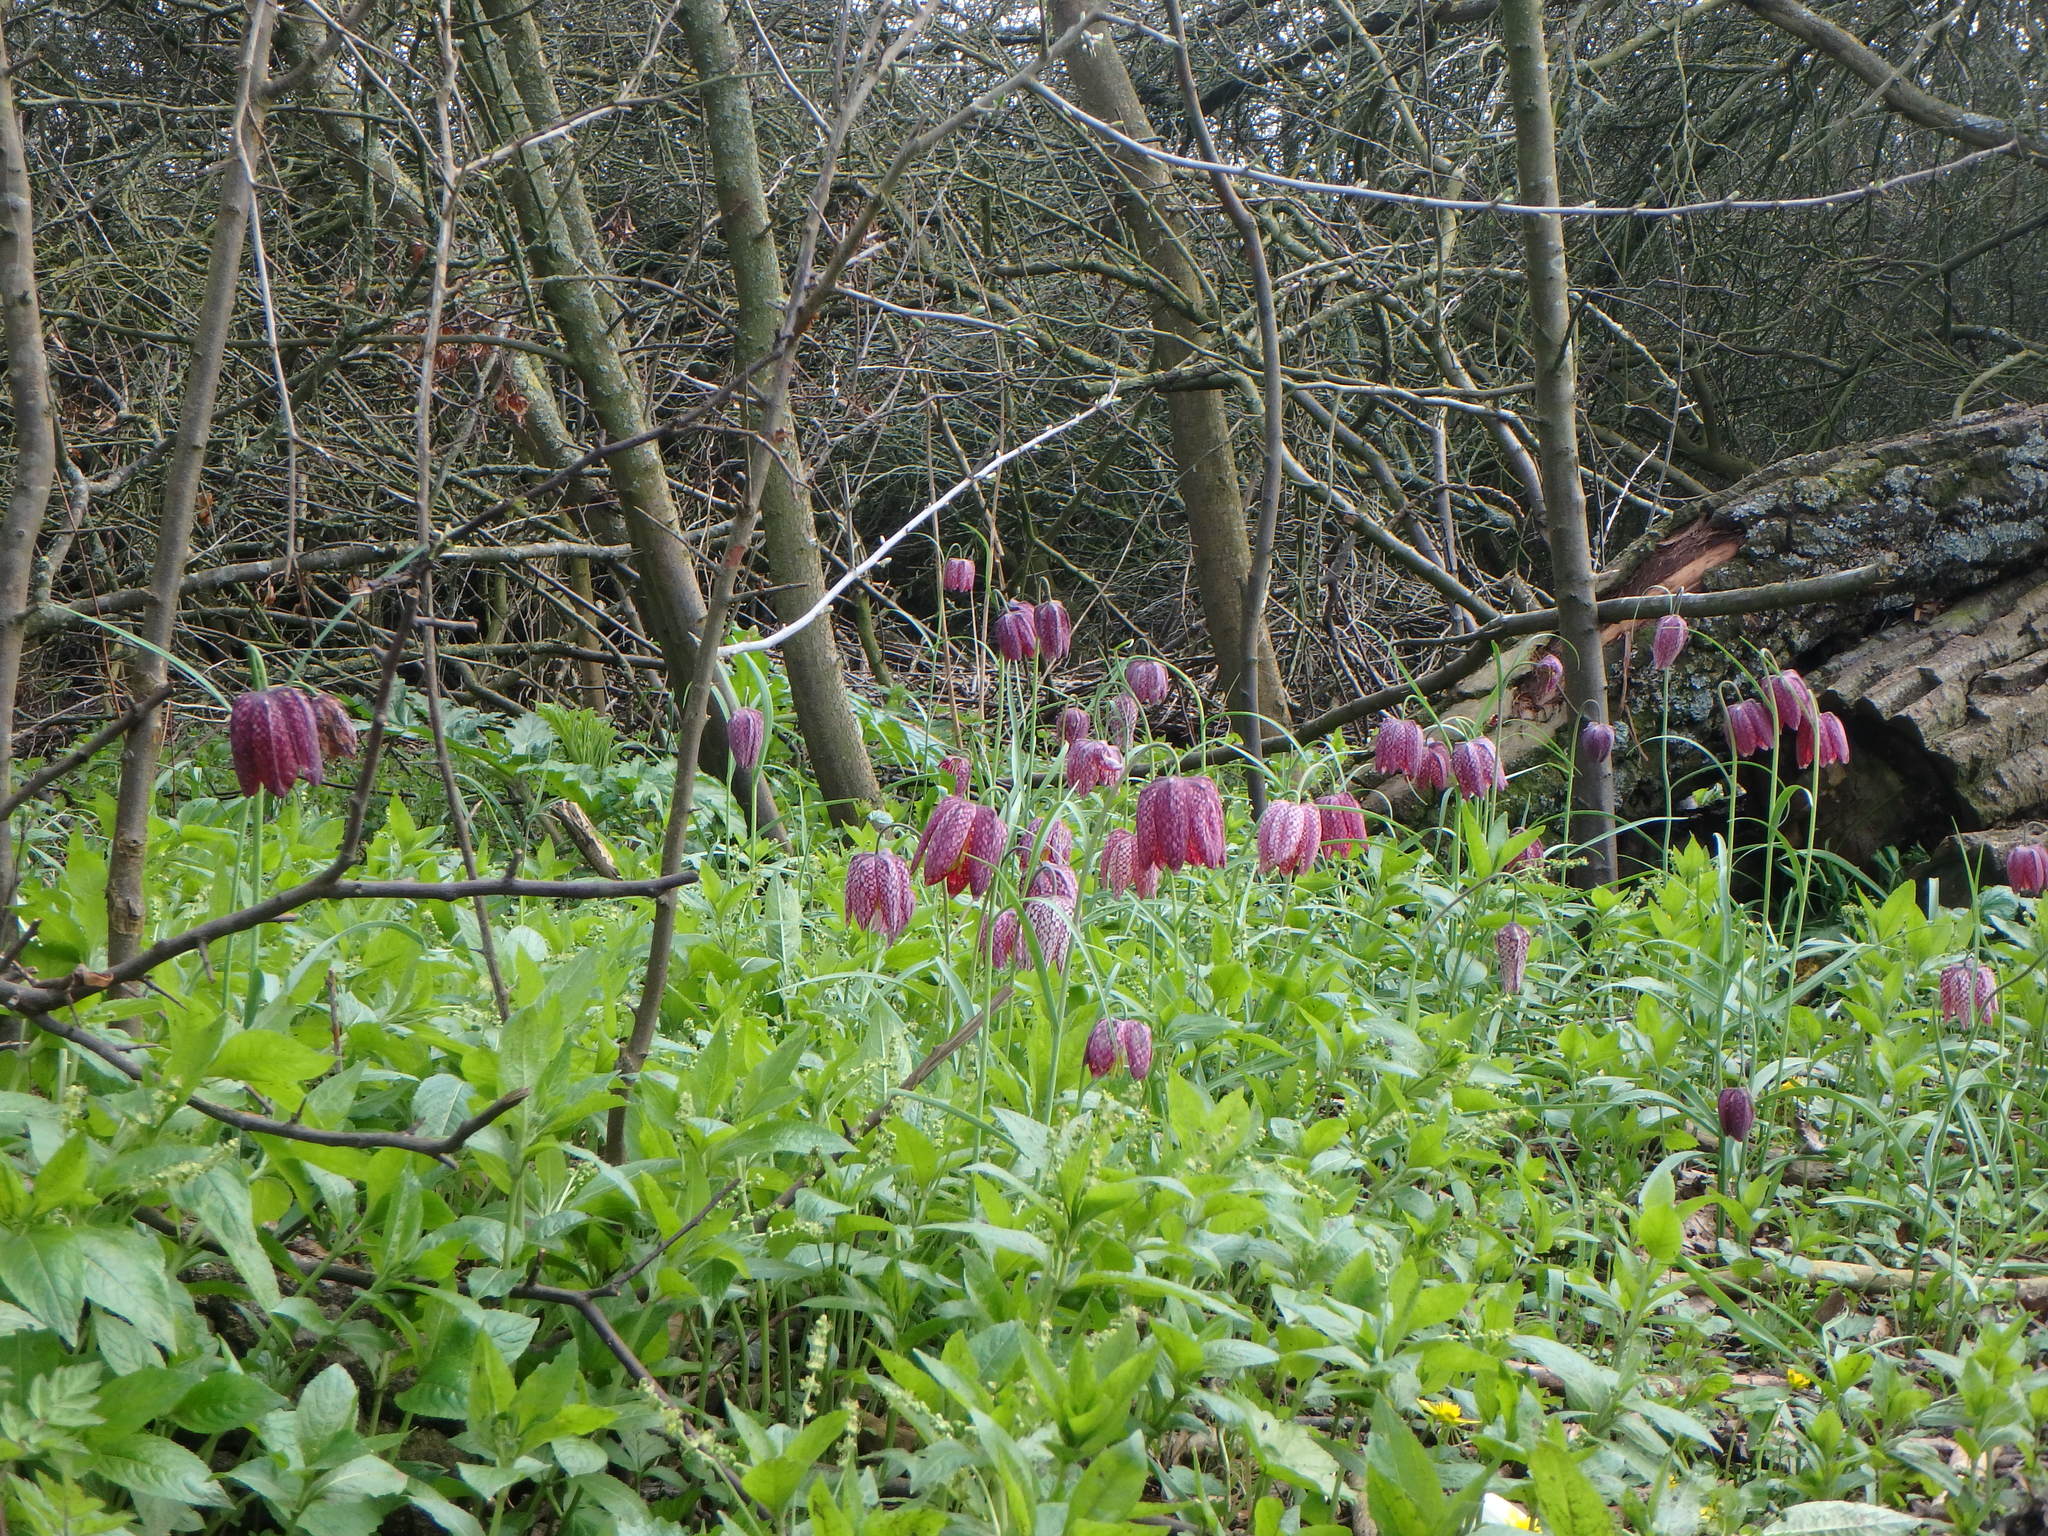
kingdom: Plantae
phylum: Tracheophyta
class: Liliopsida
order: Liliales
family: Liliaceae
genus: Fritillaria
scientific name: Fritillaria meleagris
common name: Fritillary
